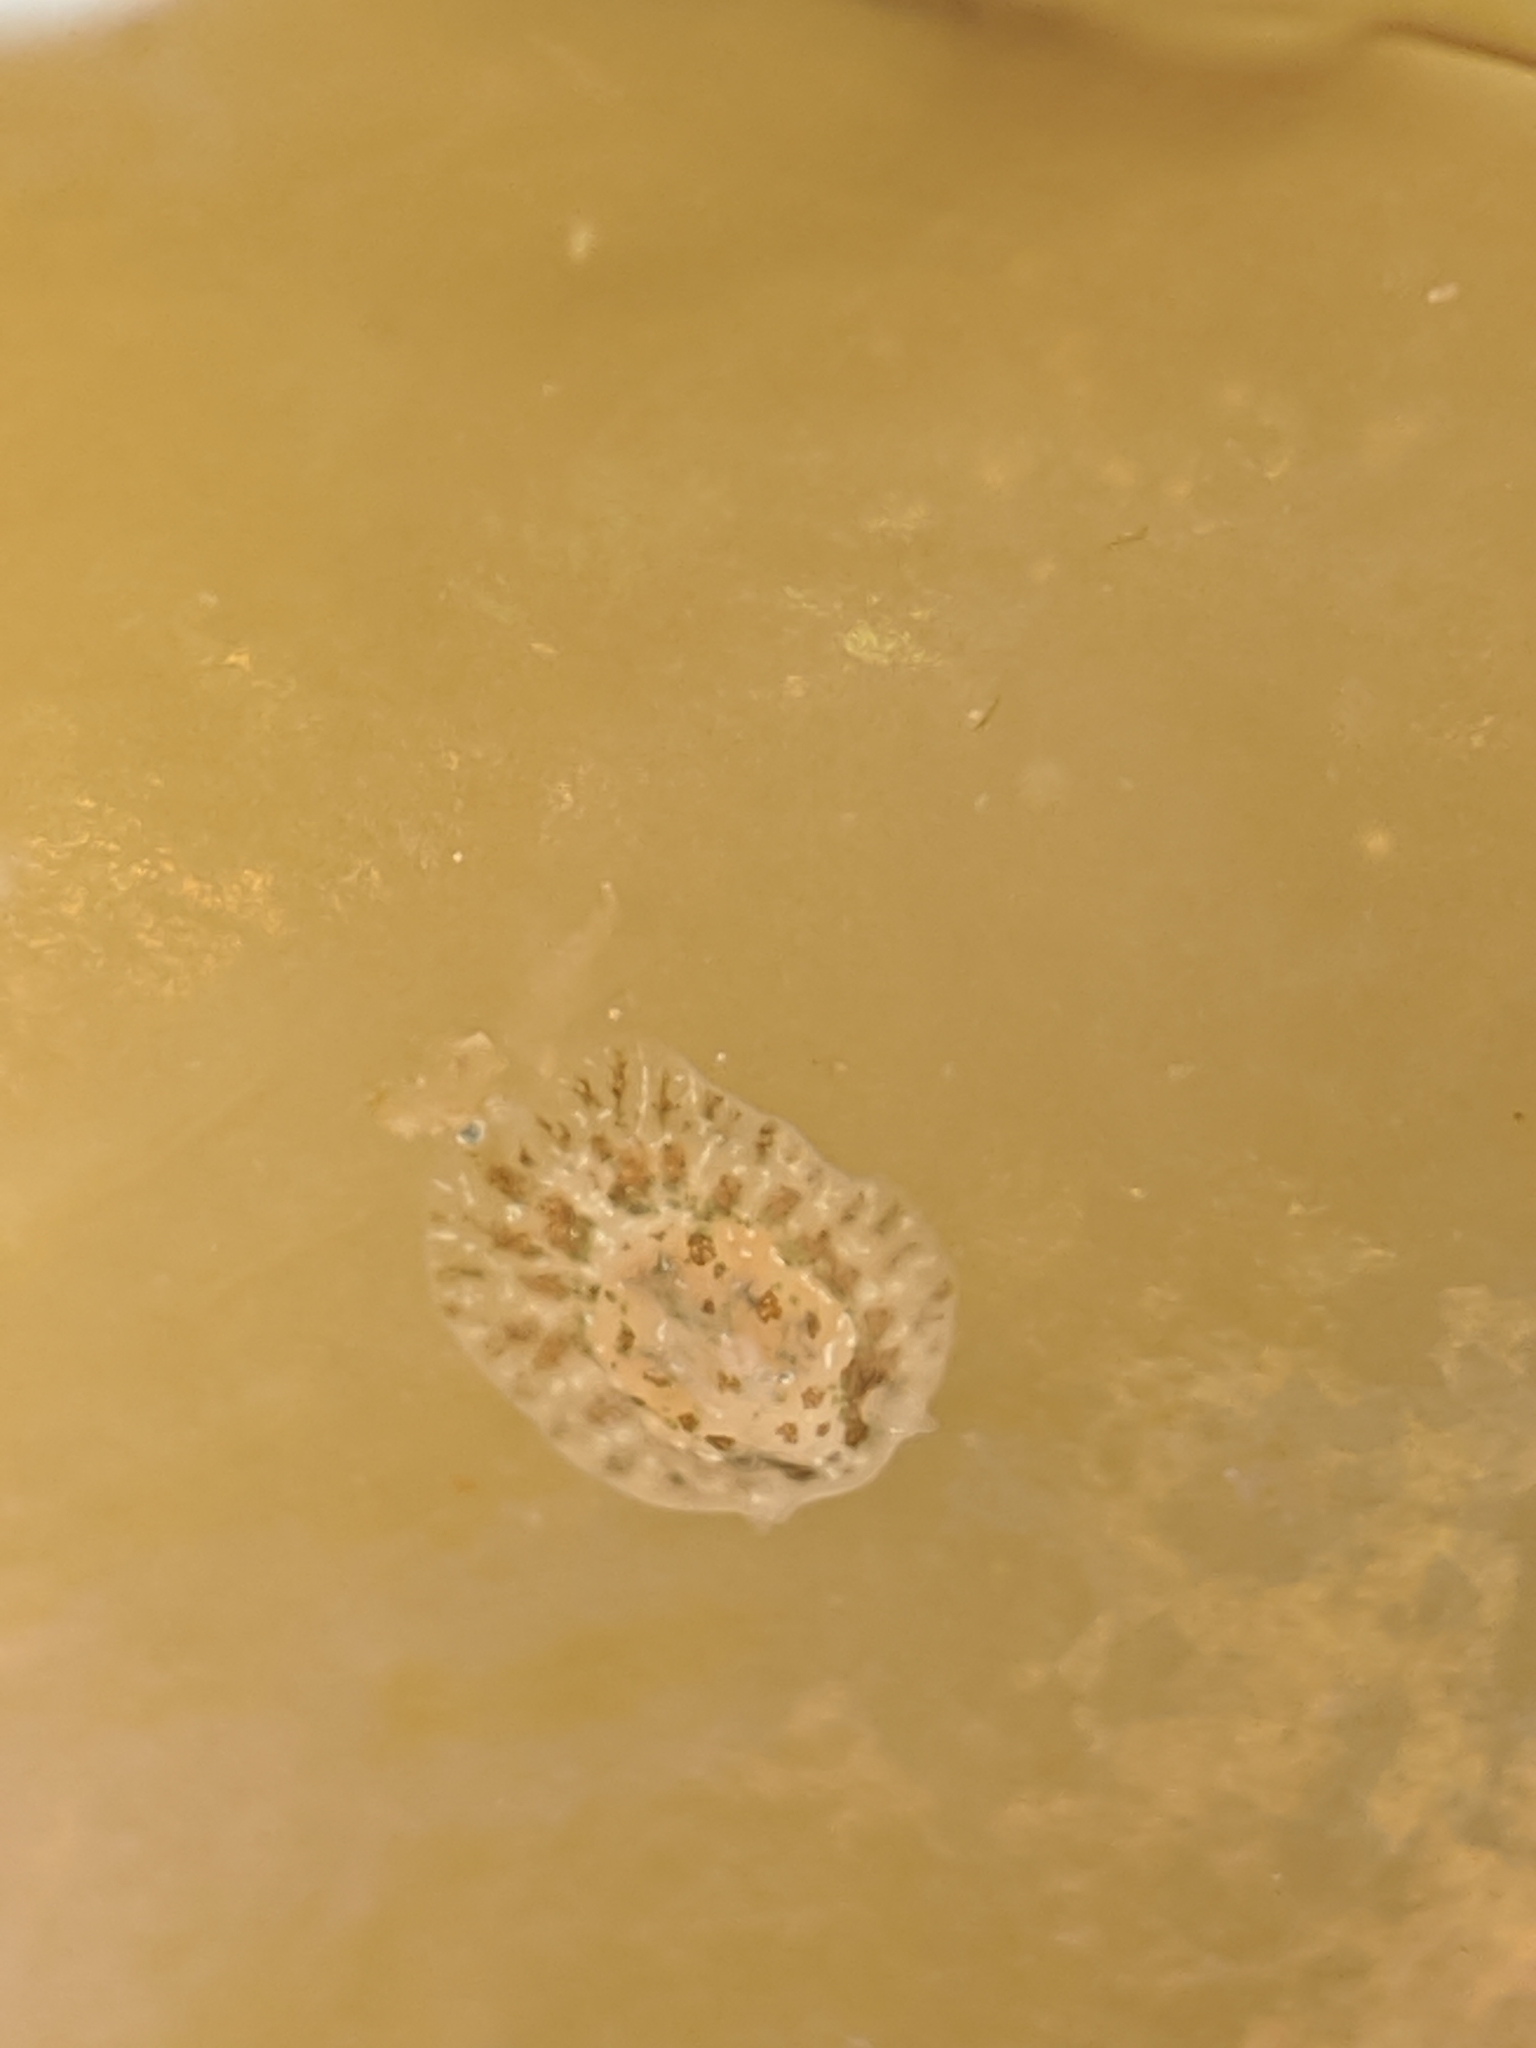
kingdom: Animalia
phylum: Mollusca
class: Gastropoda
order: Nudibranchia
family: Corambidae
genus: Corambe
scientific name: Corambe pacifica
